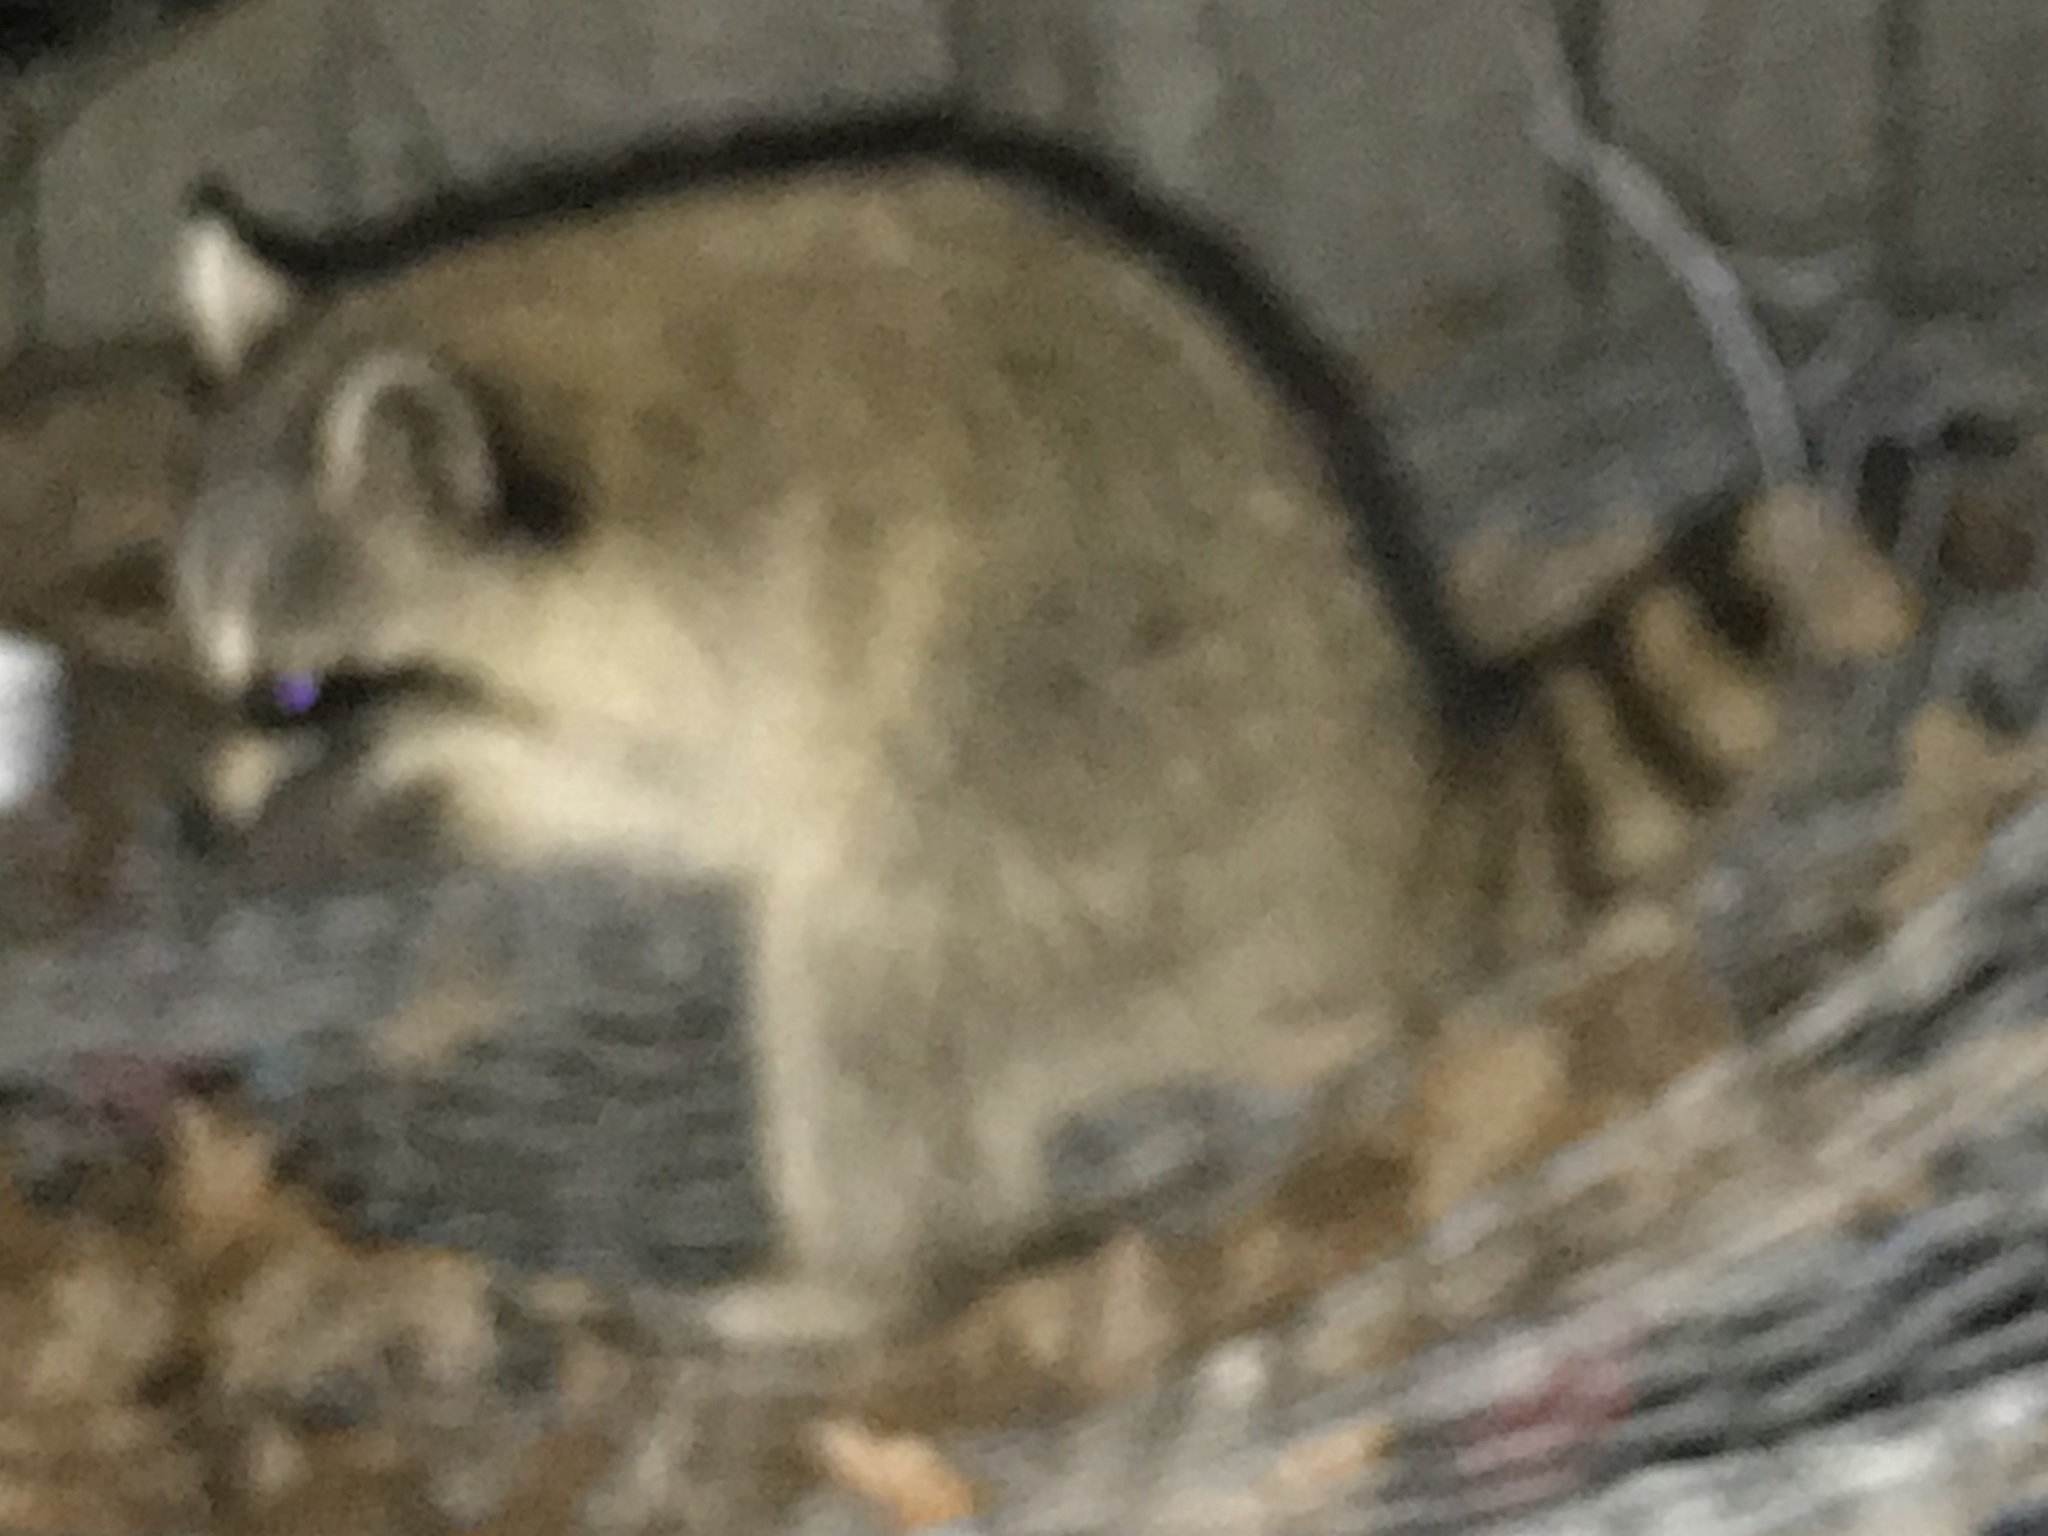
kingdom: Animalia
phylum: Chordata
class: Mammalia
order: Carnivora
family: Procyonidae
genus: Procyon
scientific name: Procyon lotor
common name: Raccoon
